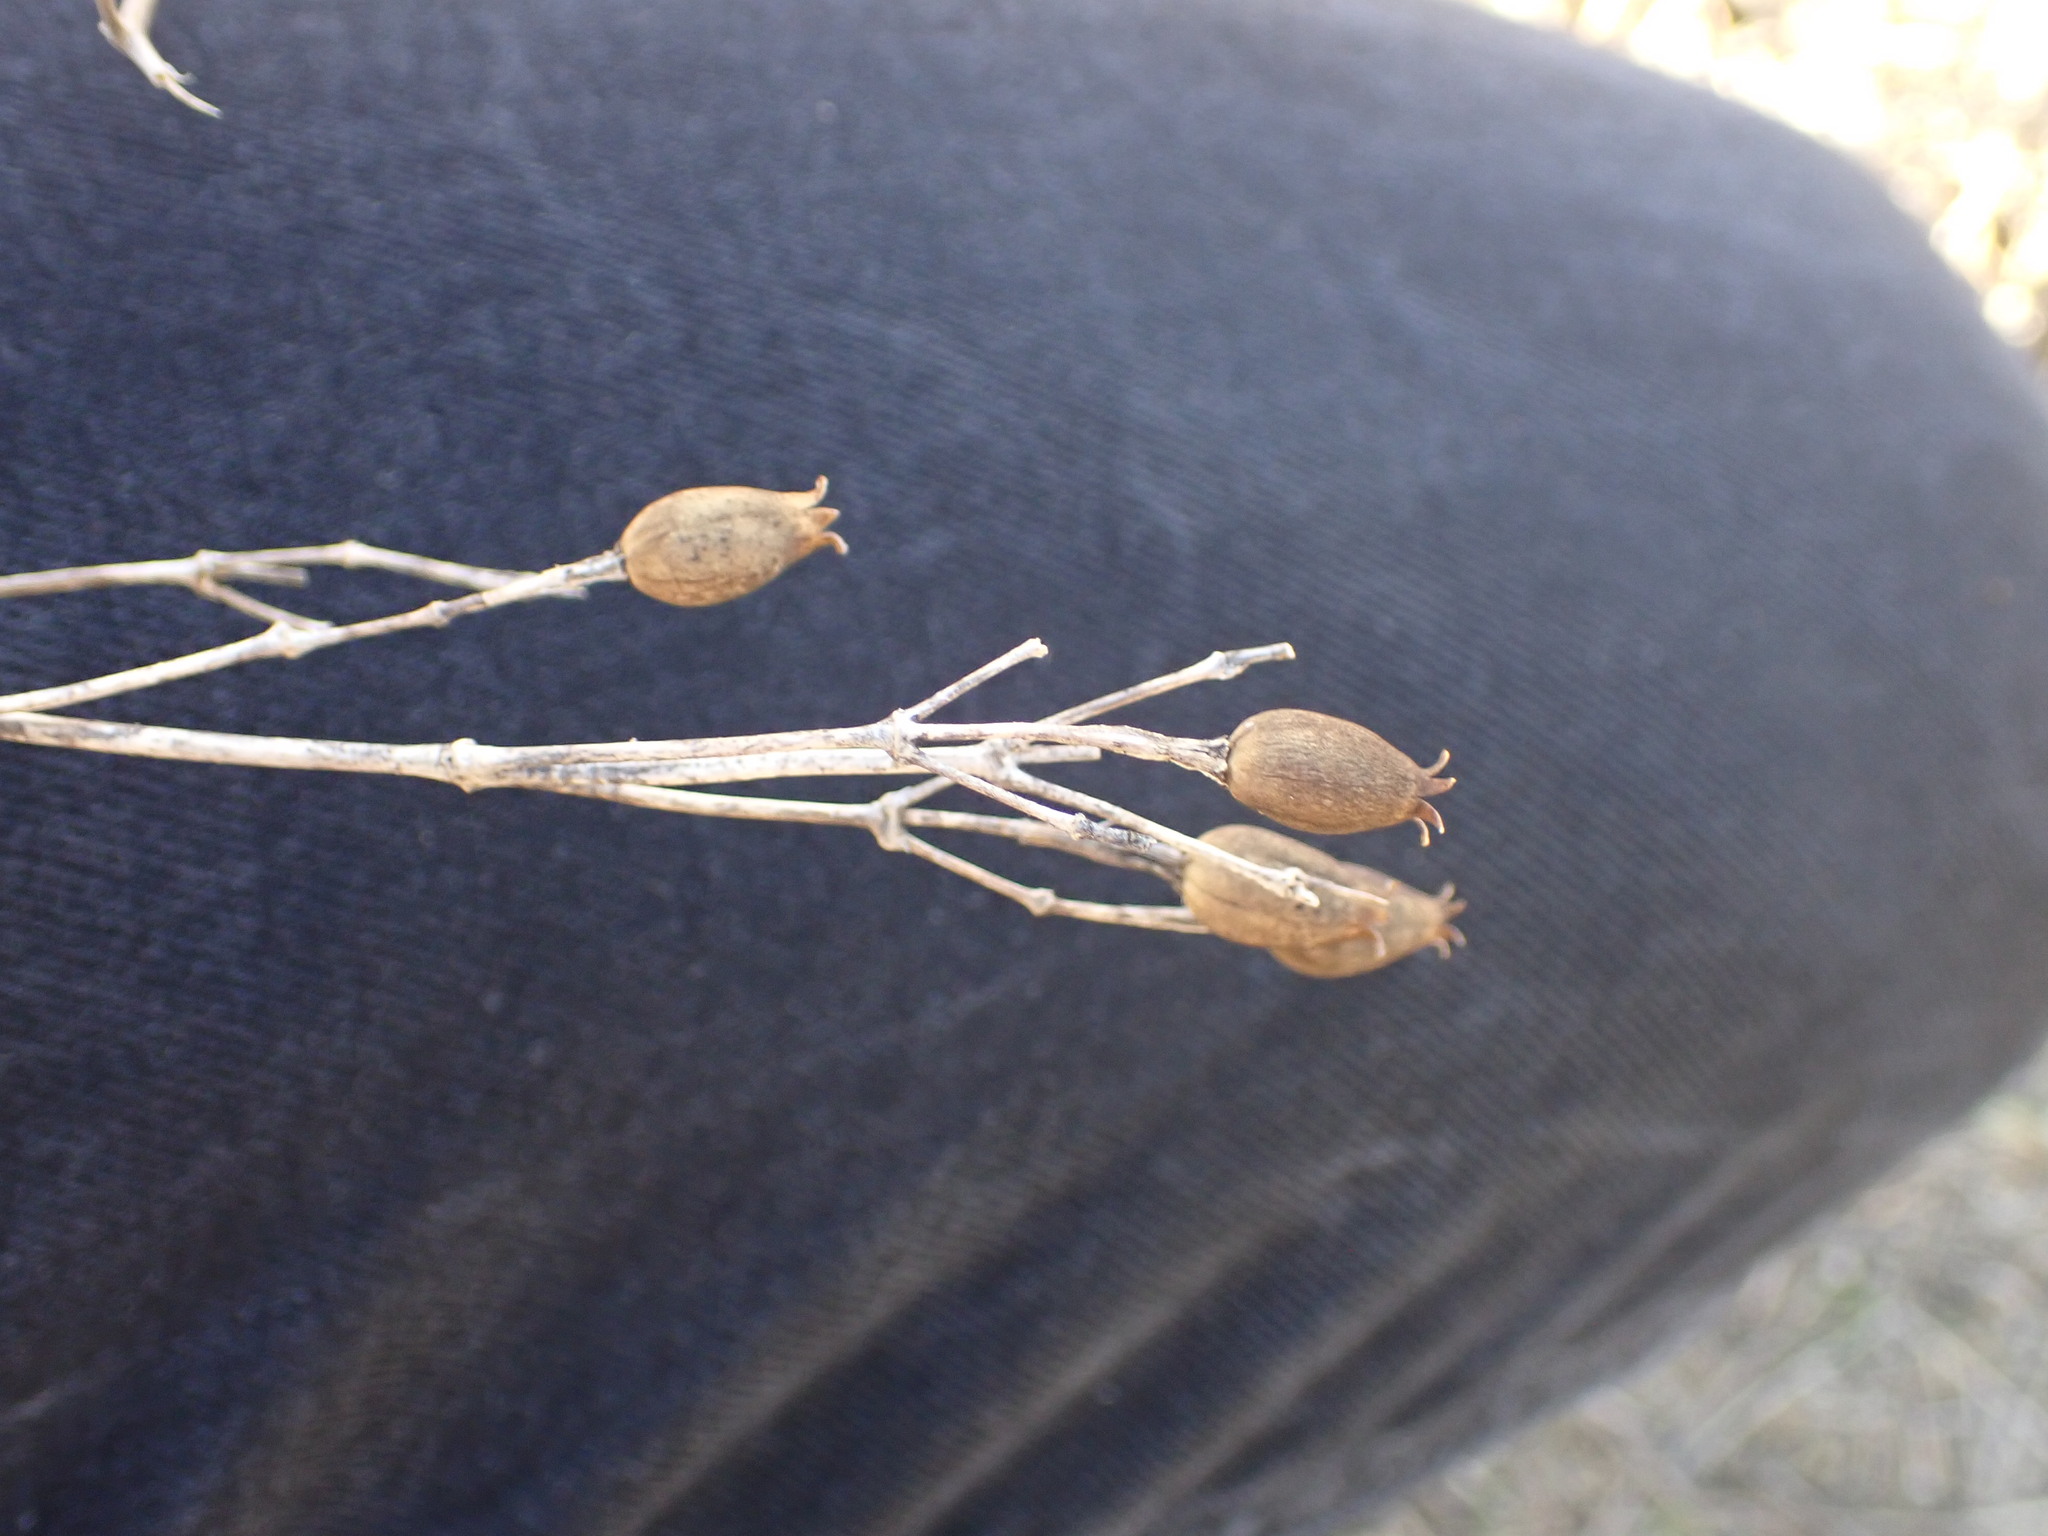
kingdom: Plantae
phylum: Tracheophyta
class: Magnoliopsida
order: Caryophyllales
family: Caryophyllaceae
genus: Silene
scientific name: Silene italica
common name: Italian catchfly
